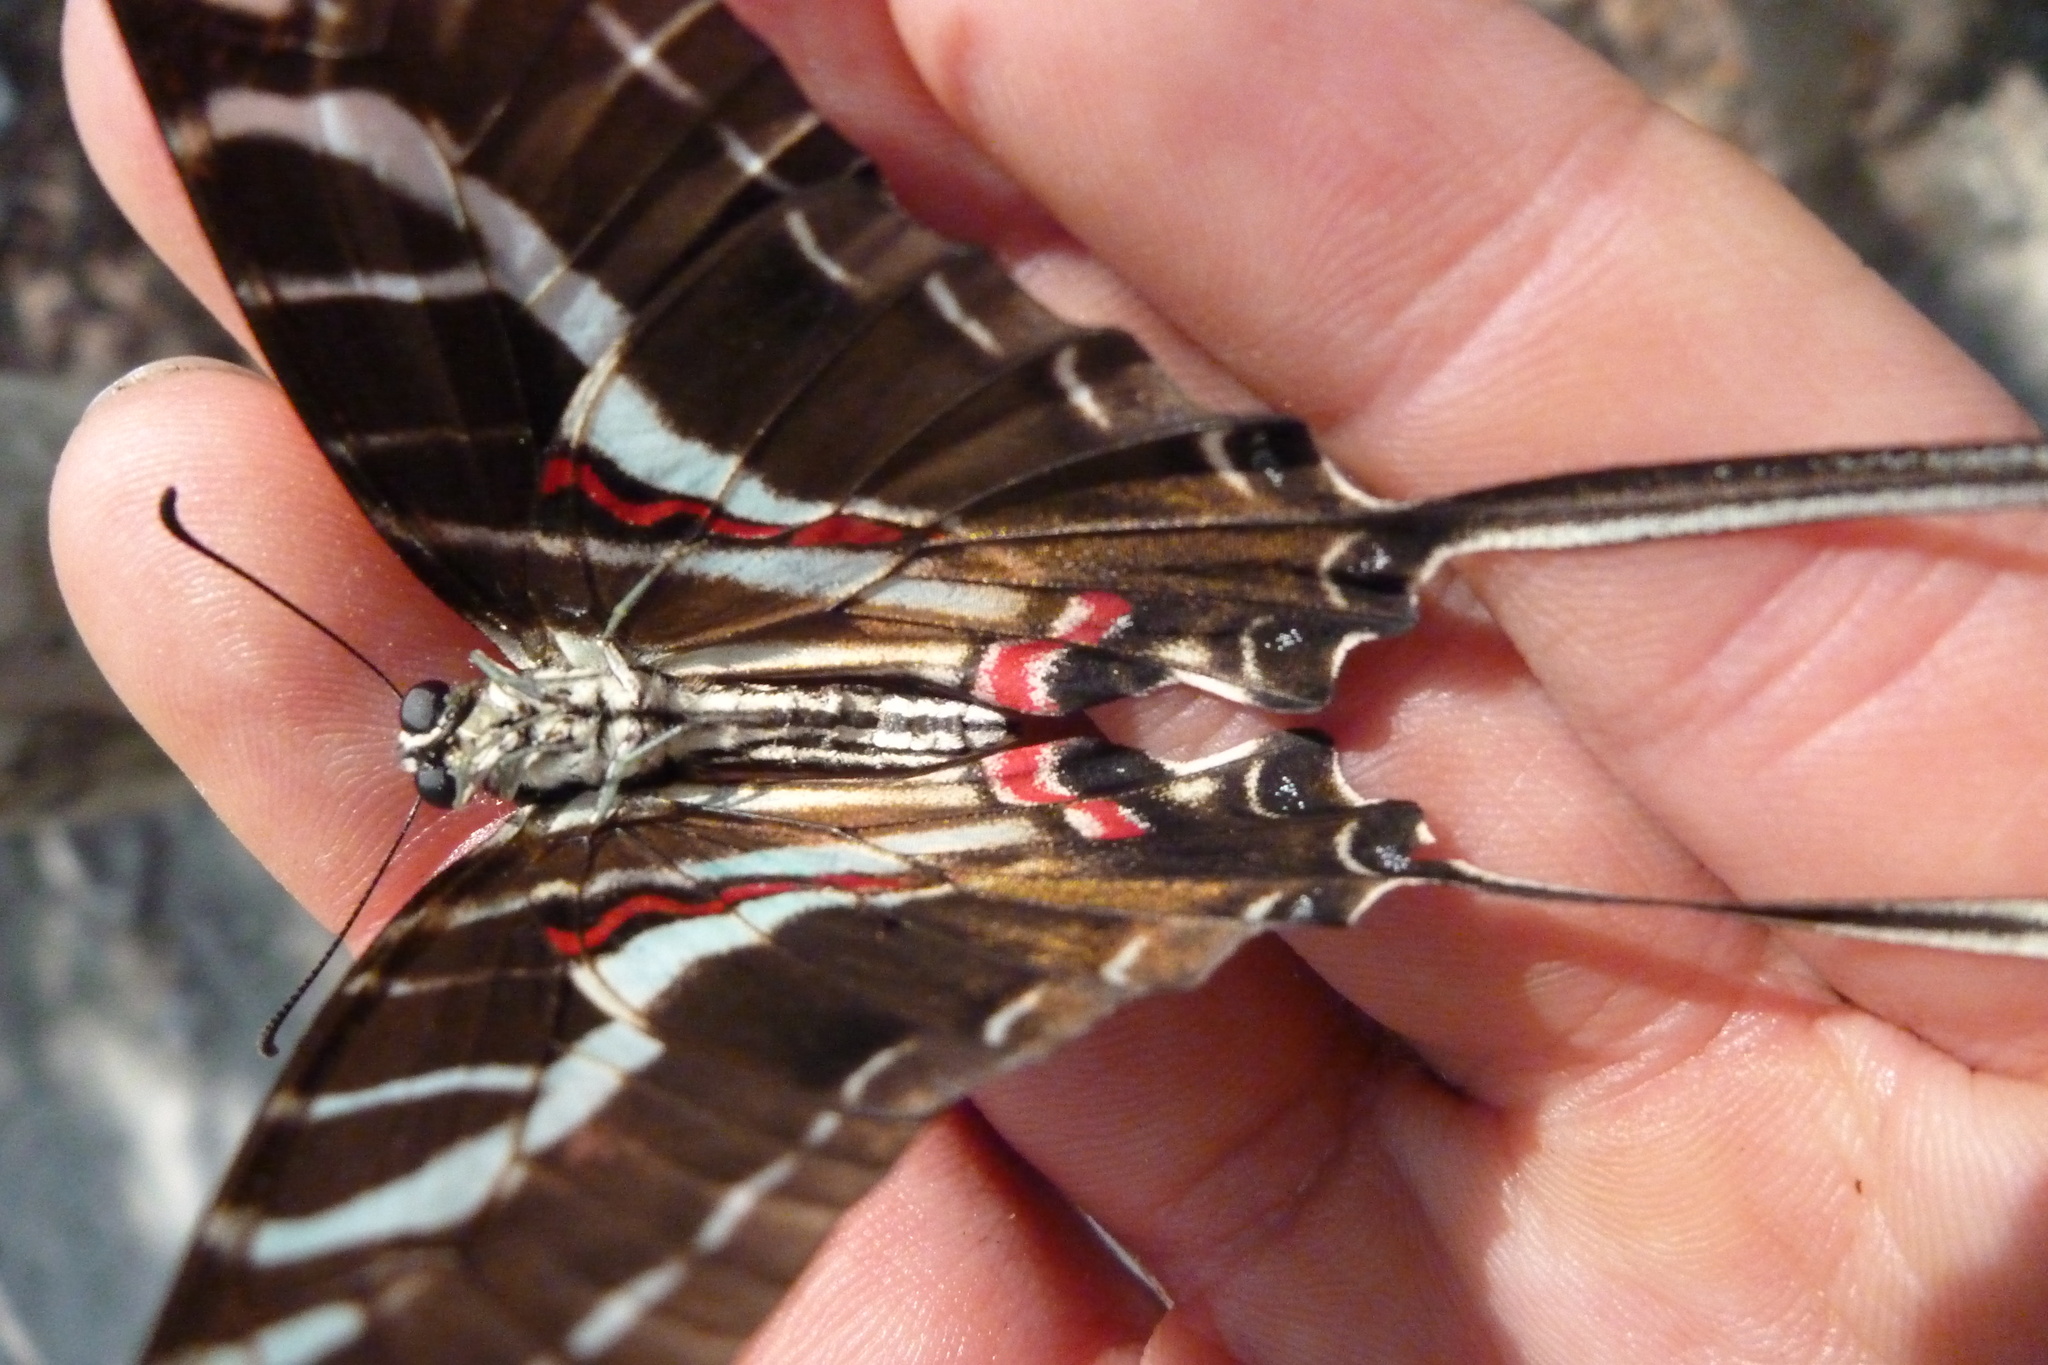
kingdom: Animalia
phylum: Arthropoda
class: Insecta
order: Lepidoptera
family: Papilionidae
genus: Protographium
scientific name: Protographium philolaus
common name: Dark zebra swallowtail
